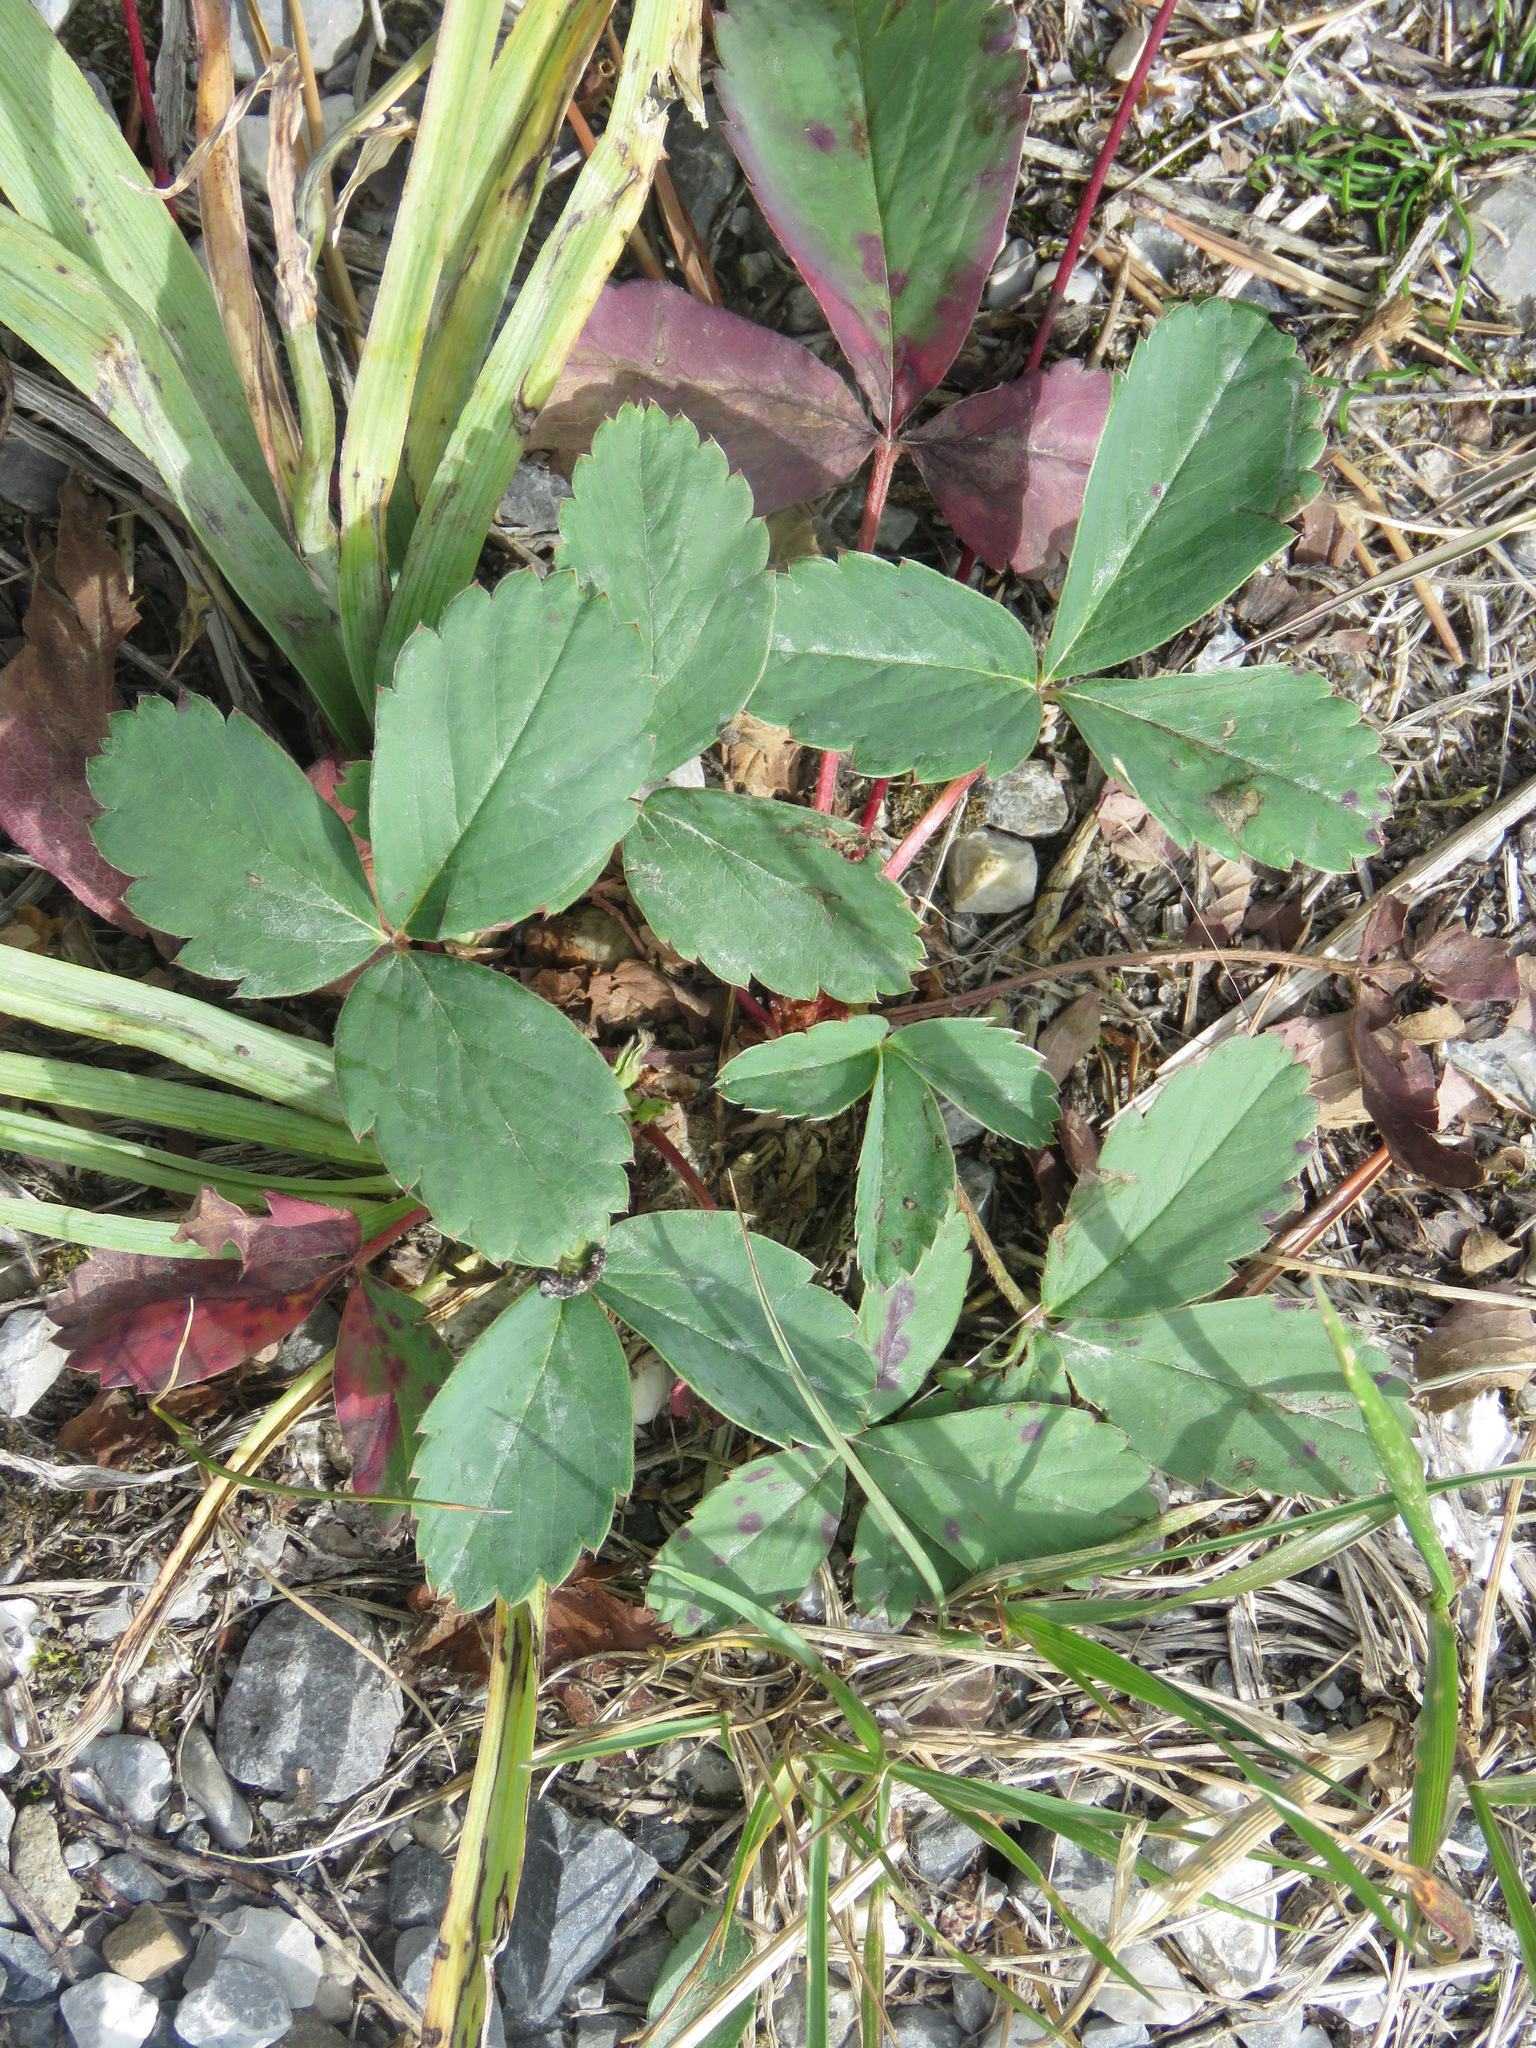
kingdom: Plantae
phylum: Tracheophyta
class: Magnoliopsida
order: Rosales
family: Rosaceae
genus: Fragaria
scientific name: Fragaria virginiana
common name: Thickleaved wild strawberry
